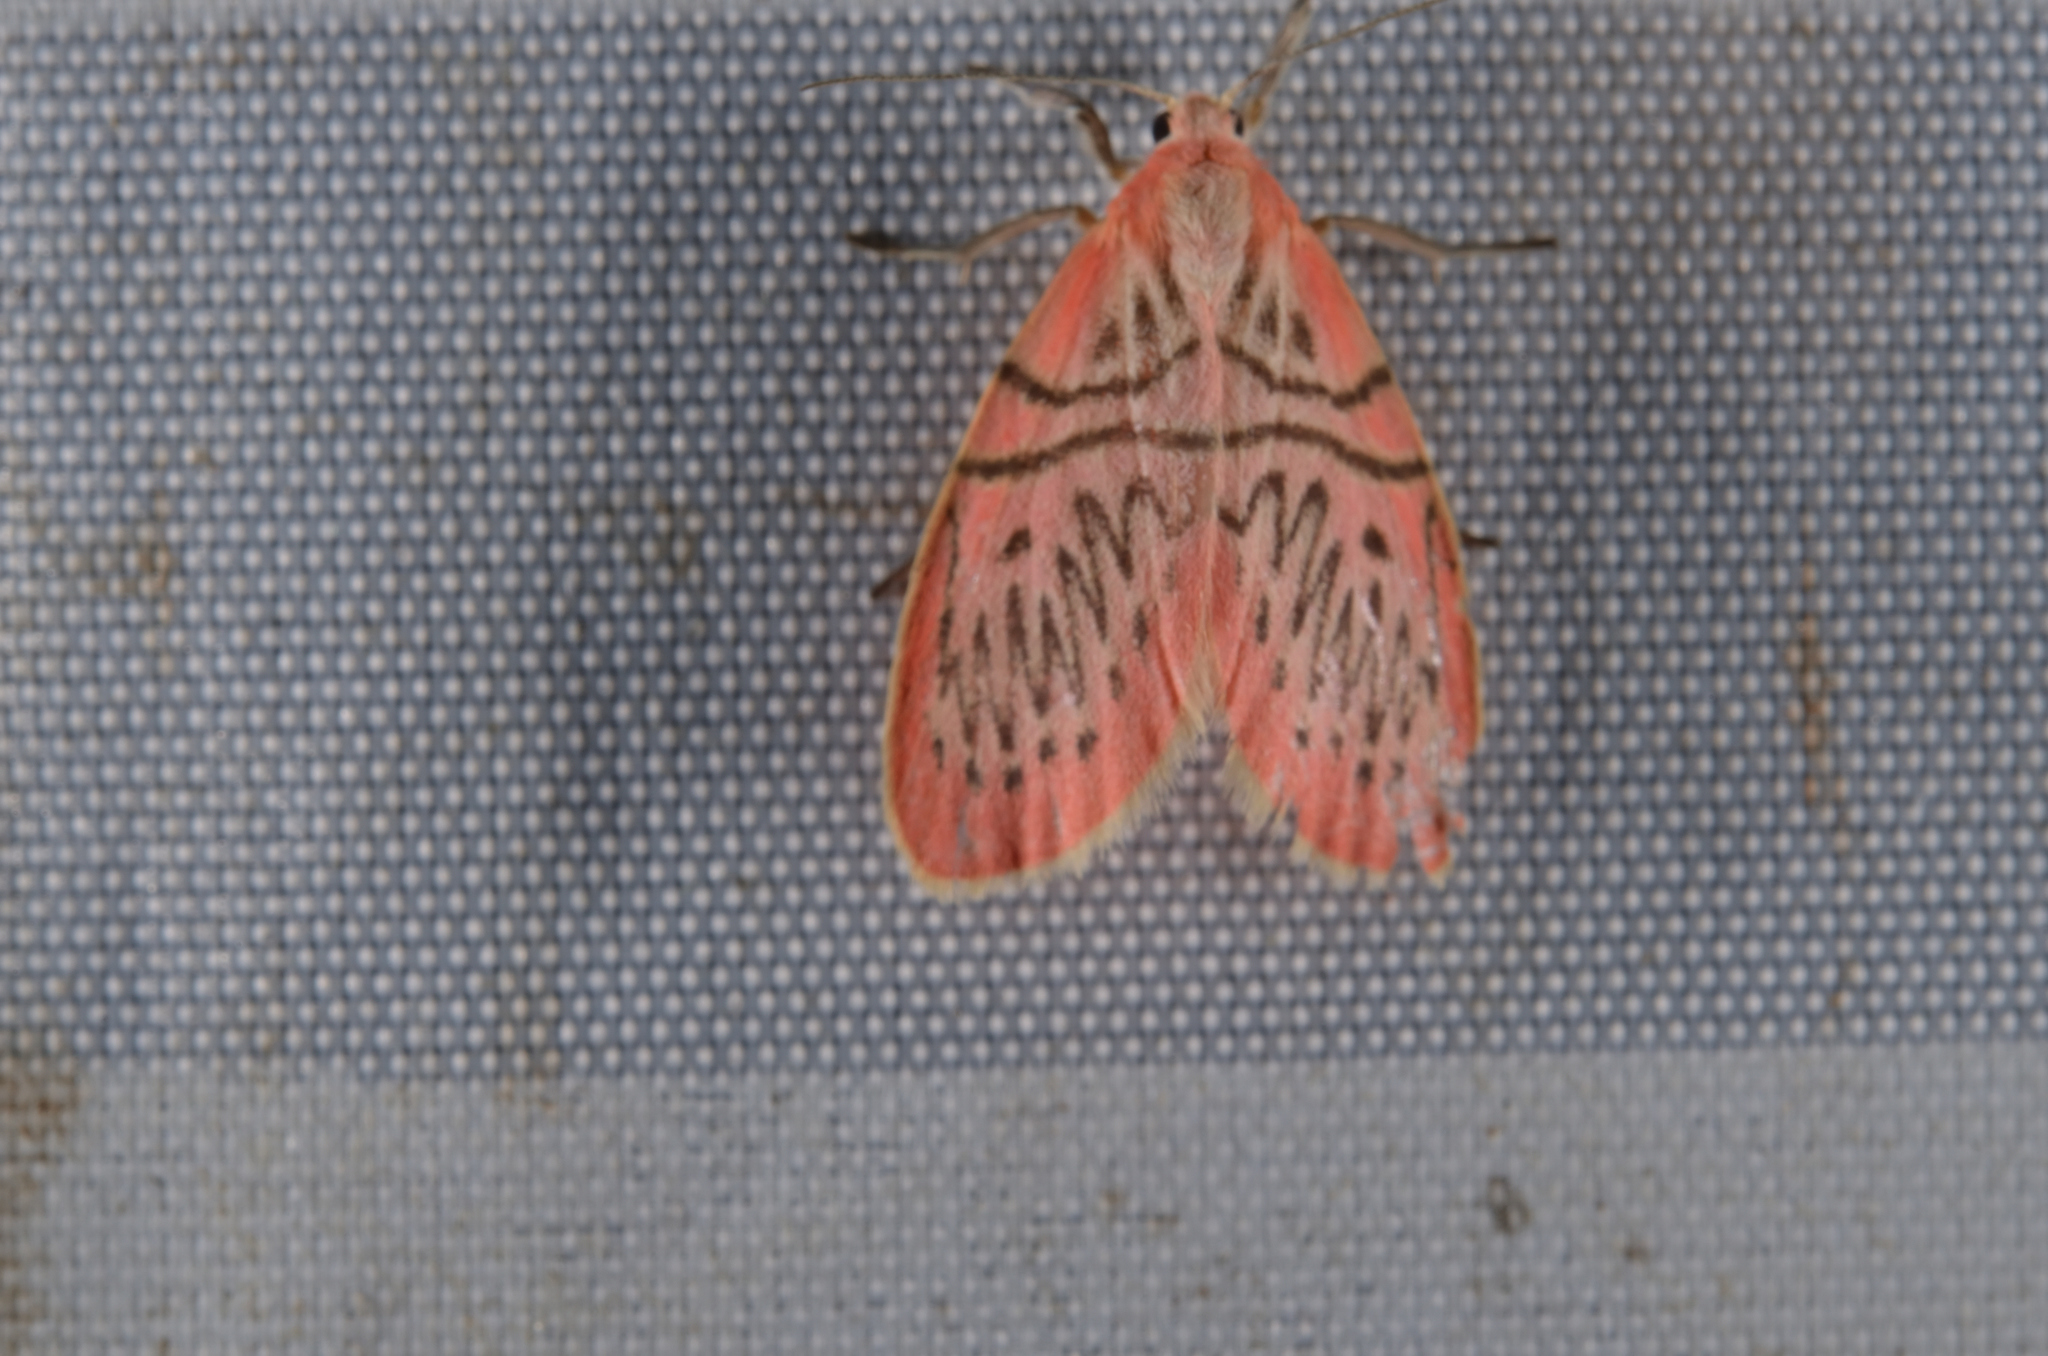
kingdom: Animalia
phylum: Arthropoda
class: Insecta
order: Lepidoptera
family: Erebidae
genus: Erebus
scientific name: Erebus terminitincta
